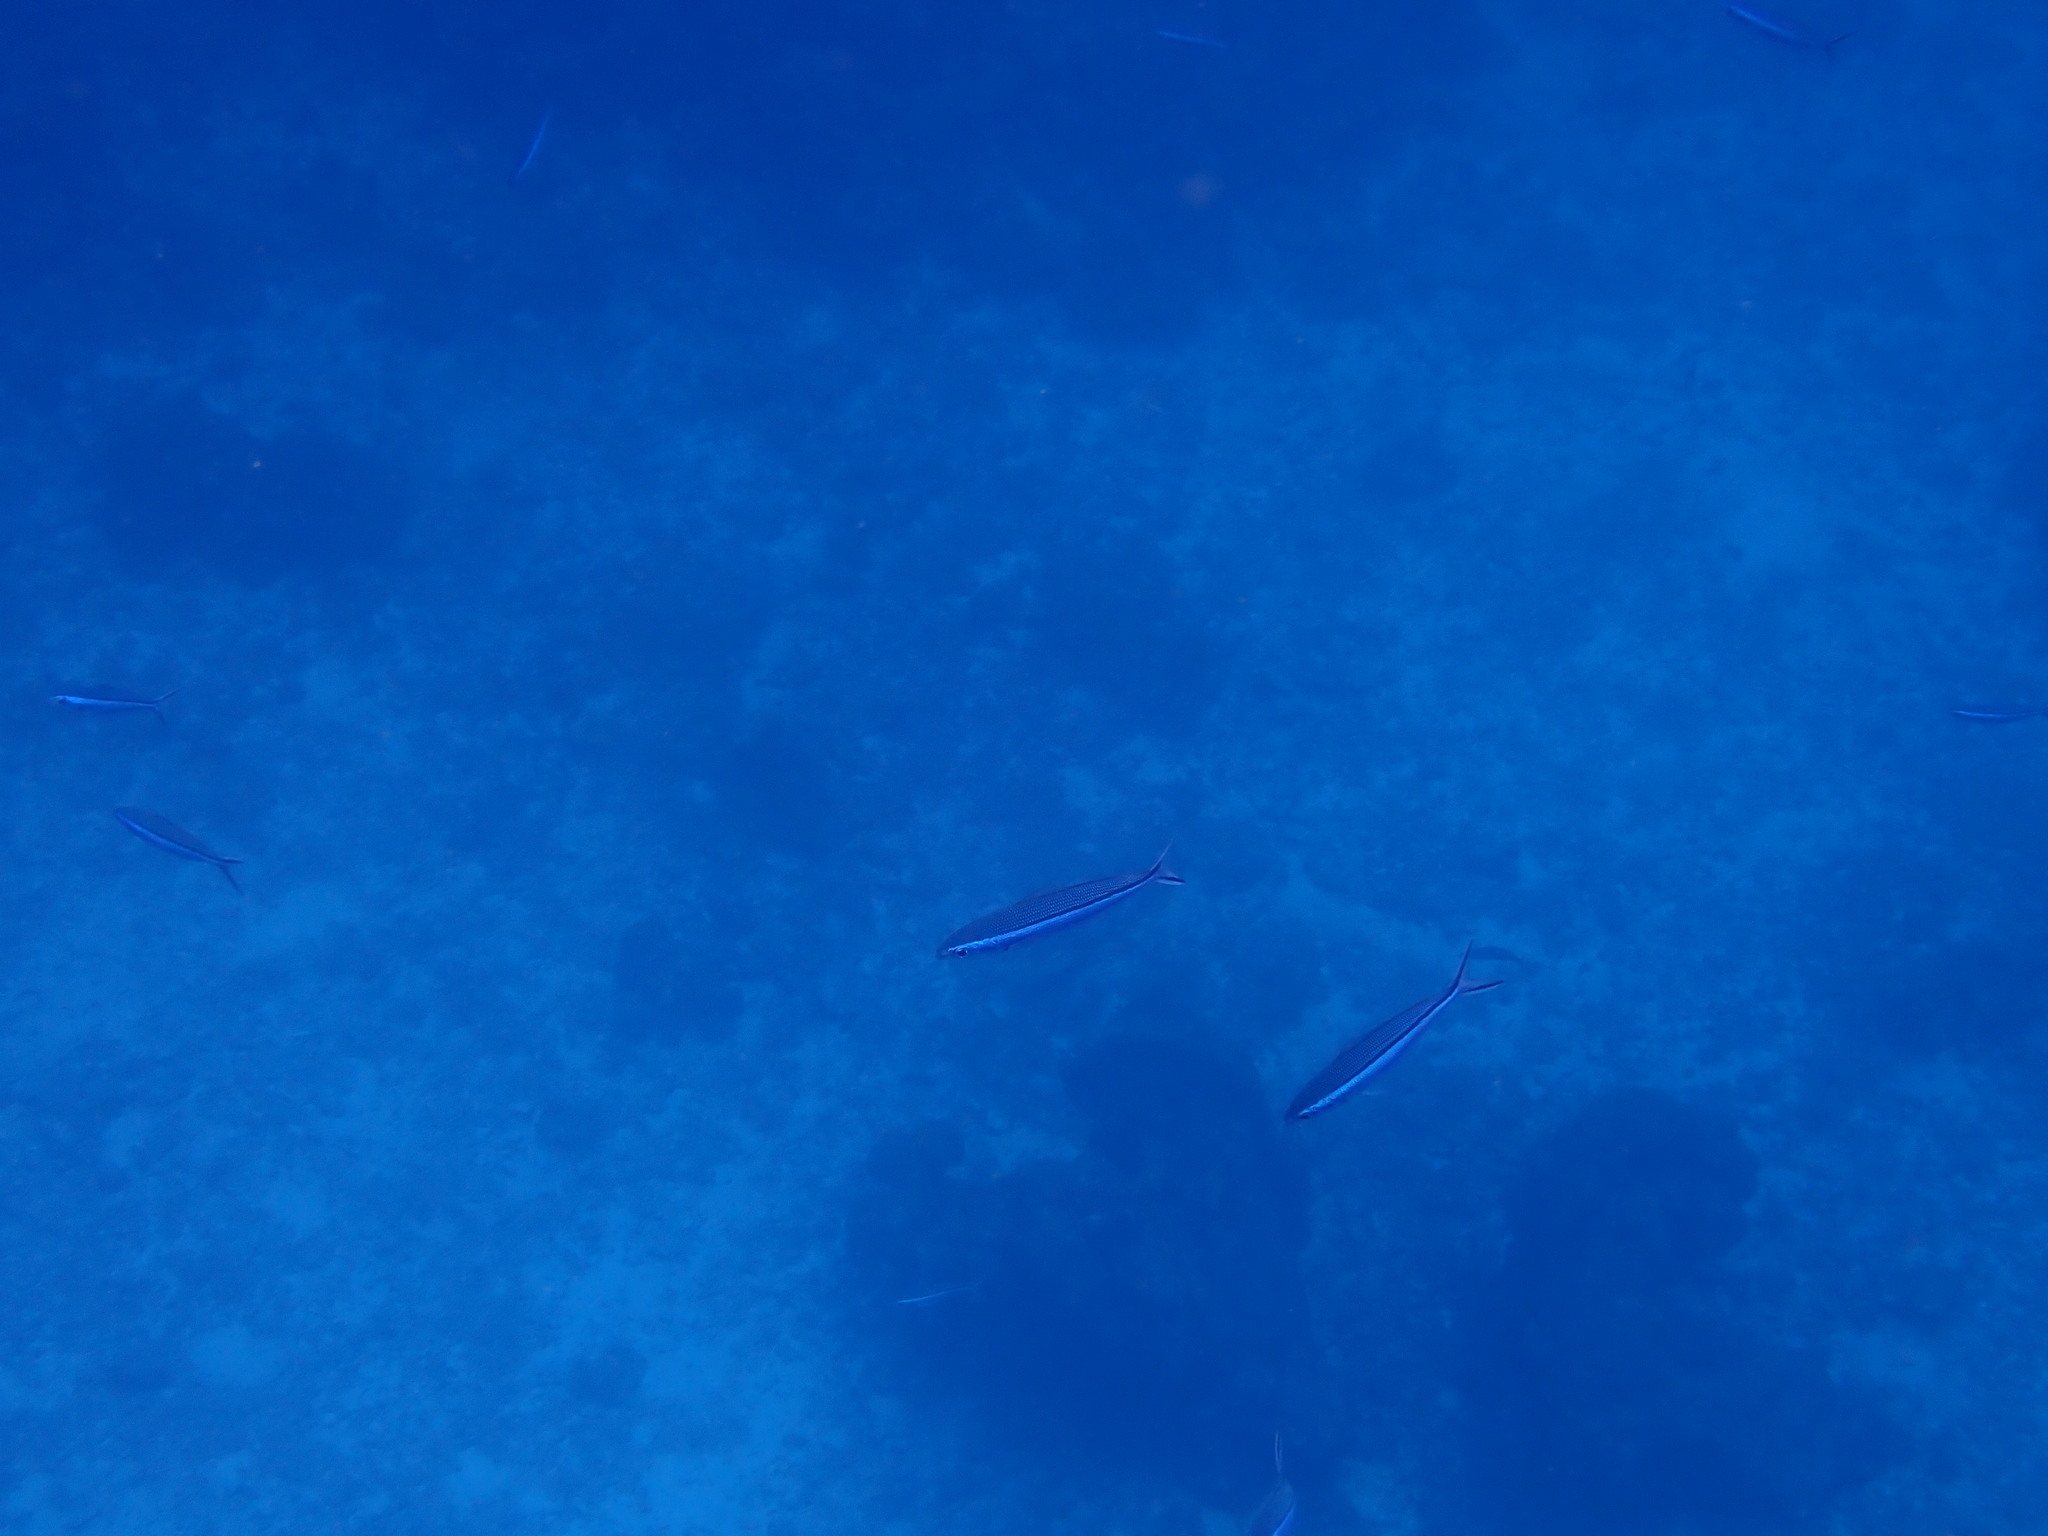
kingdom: Animalia
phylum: Chordata
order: Perciformes
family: Caesionidae
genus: Pterocaesio
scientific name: Pterocaesio tile
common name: Dark-banded fusilier
